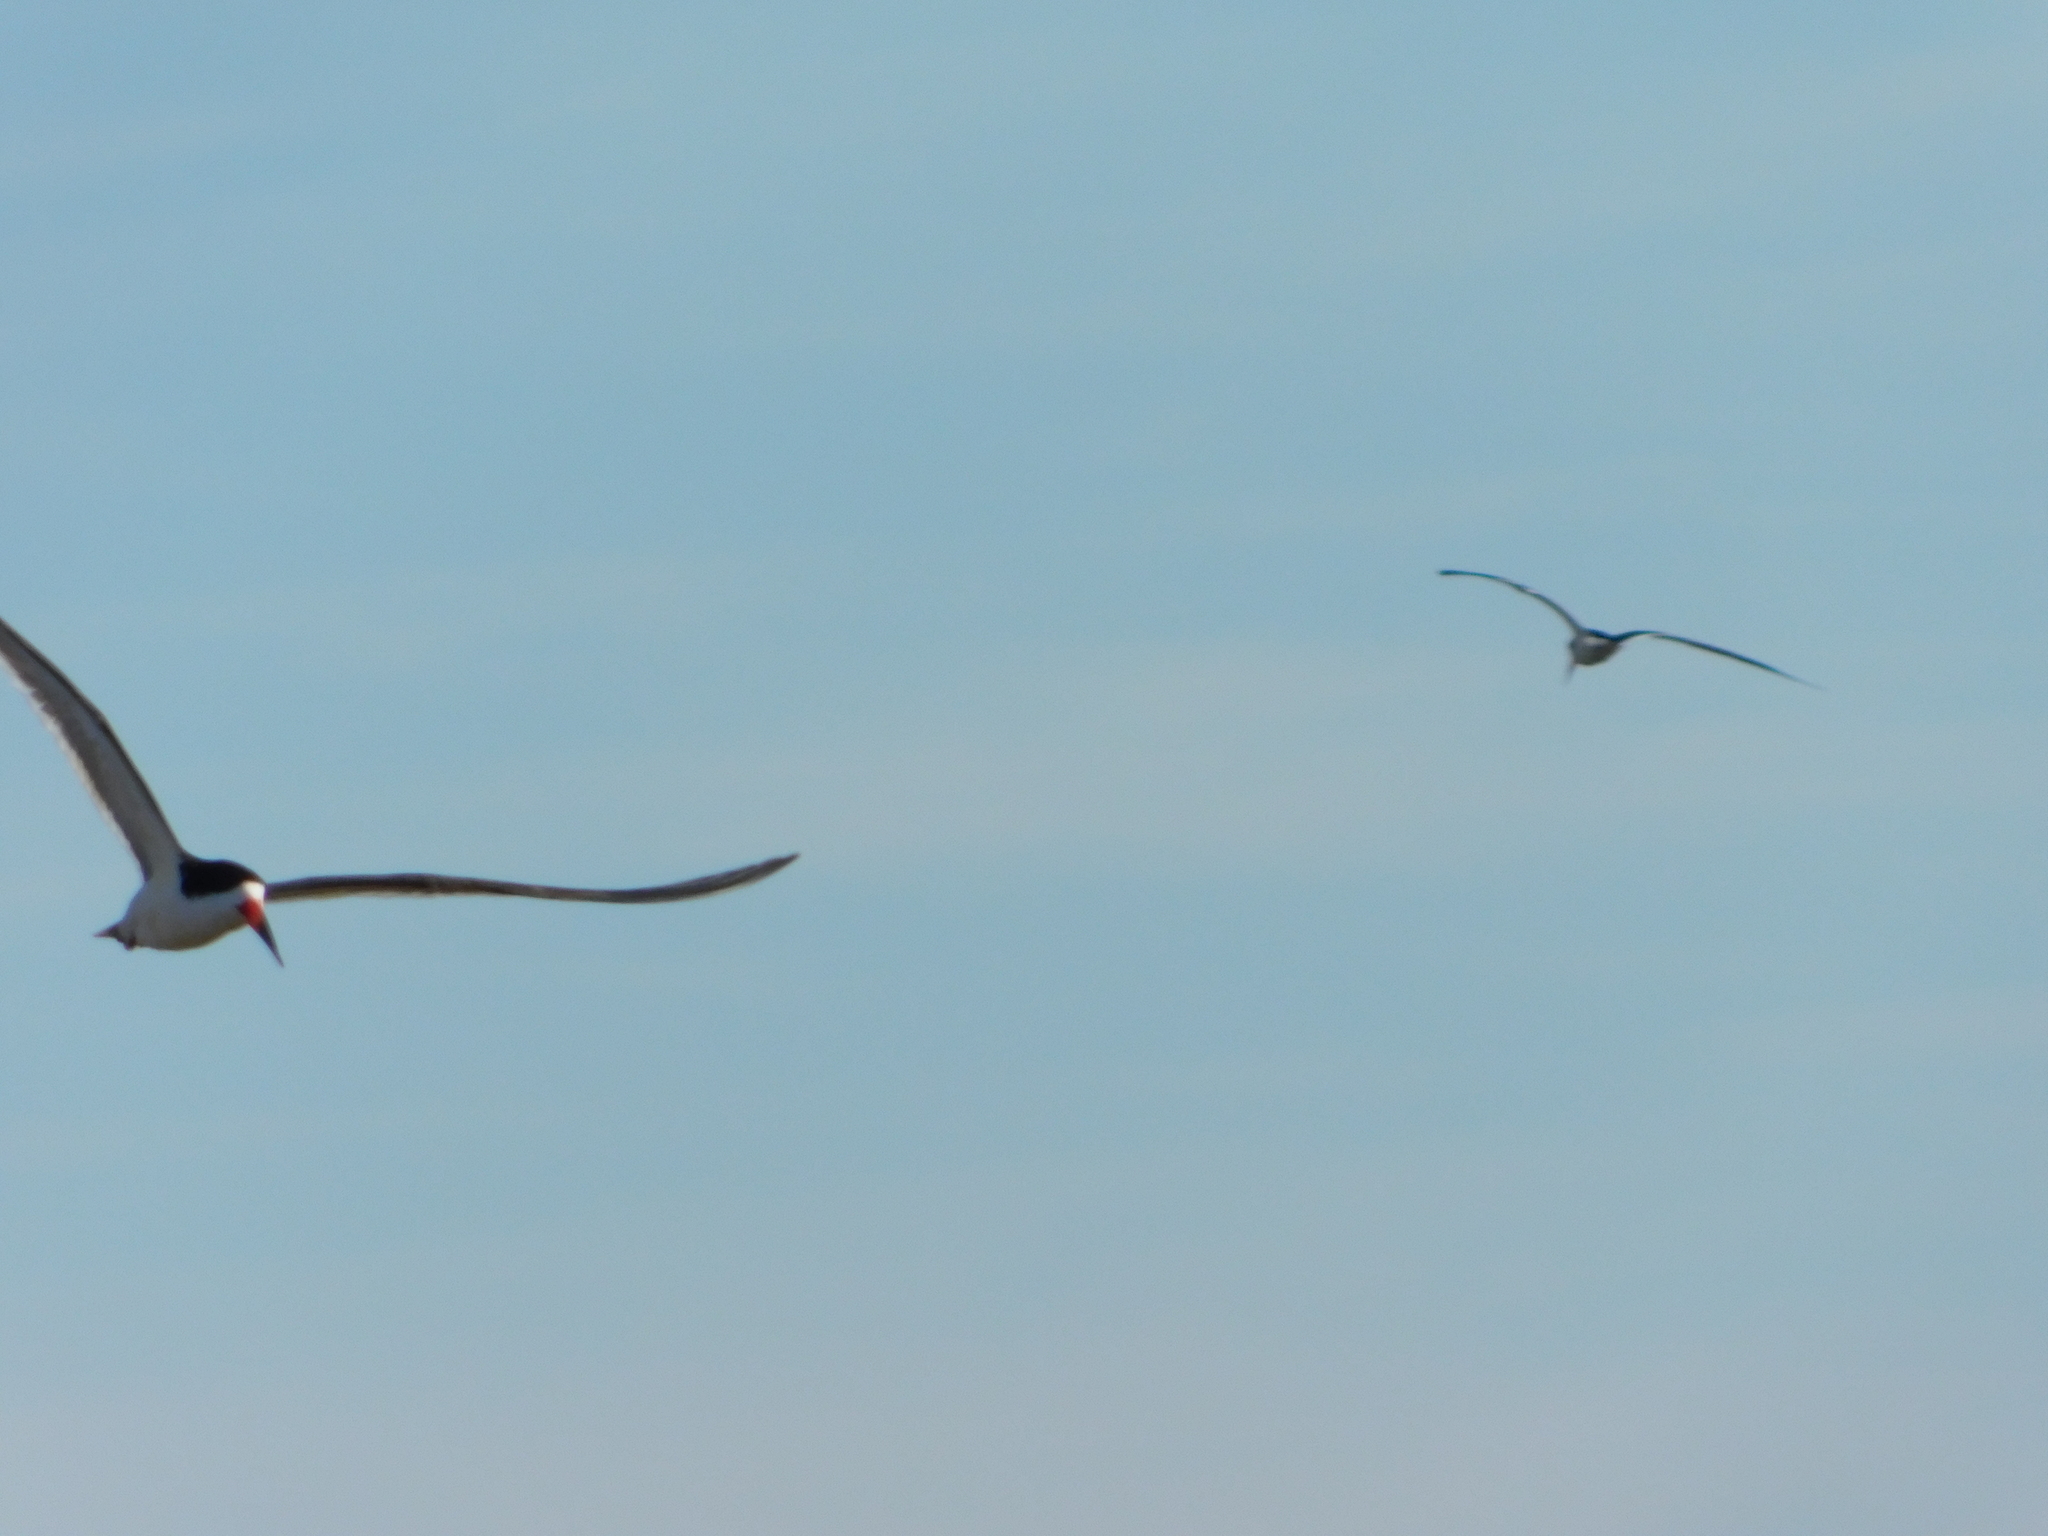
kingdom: Animalia
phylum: Chordata
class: Aves
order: Charadriiformes
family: Laridae
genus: Rynchops
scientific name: Rynchops niger
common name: Black skimmer
